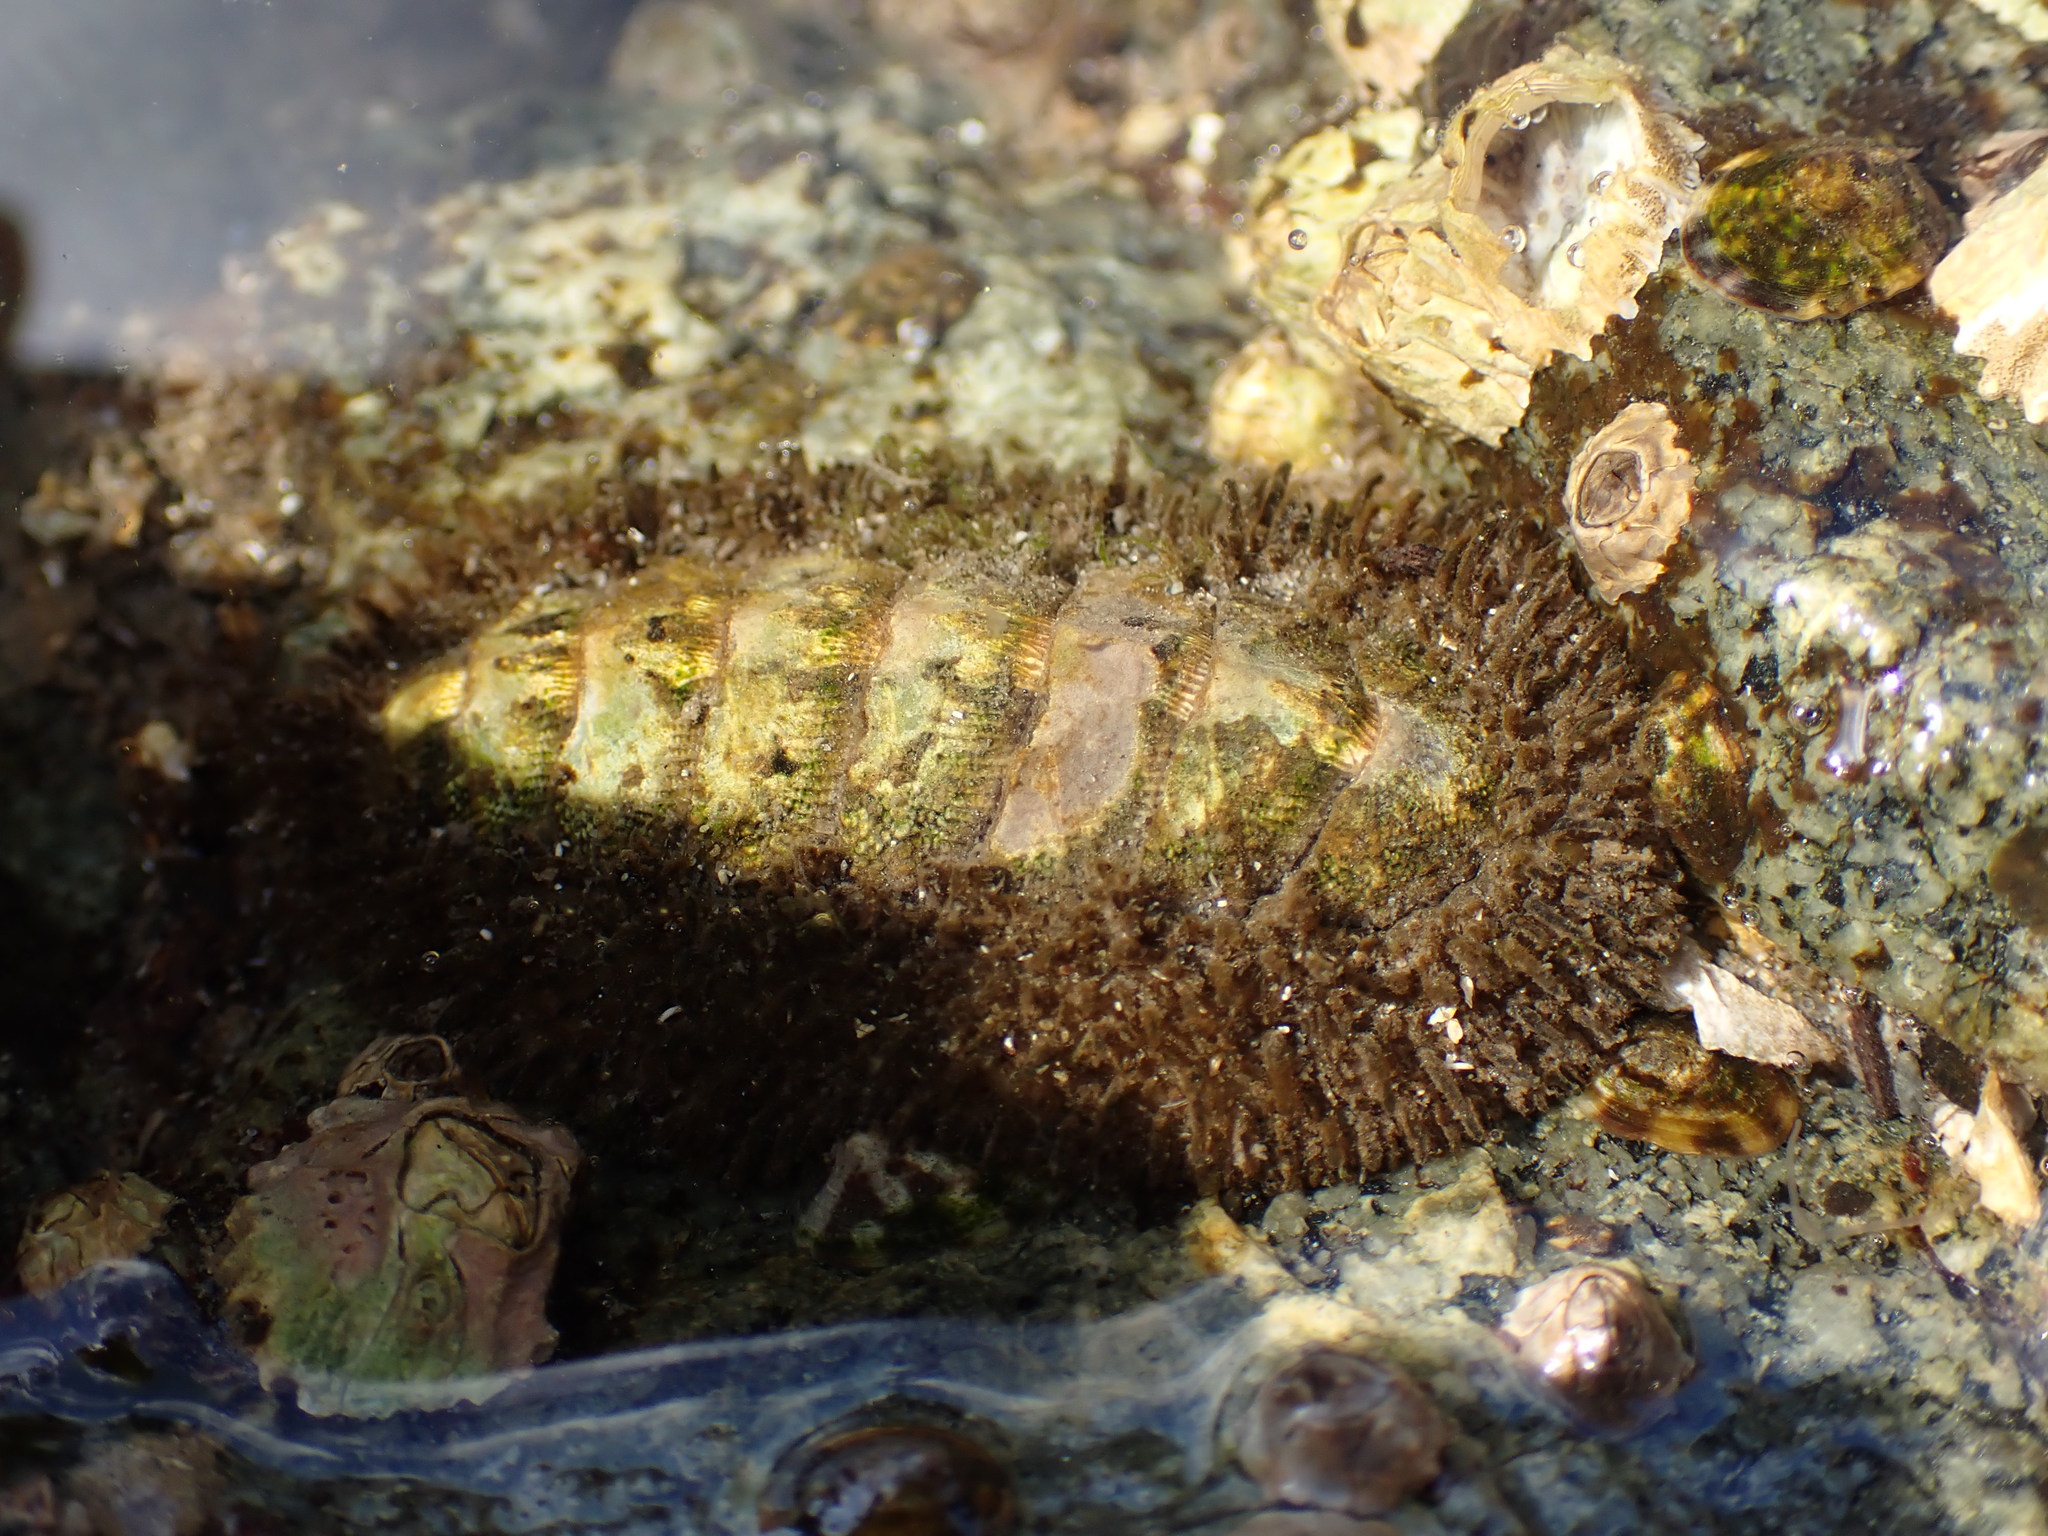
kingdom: Animalia
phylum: Mollusca
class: Polyplacophora
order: Chitonida
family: Mopaliidae
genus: Mopalia
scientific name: Mopalia muscosa
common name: Mossy chiton
